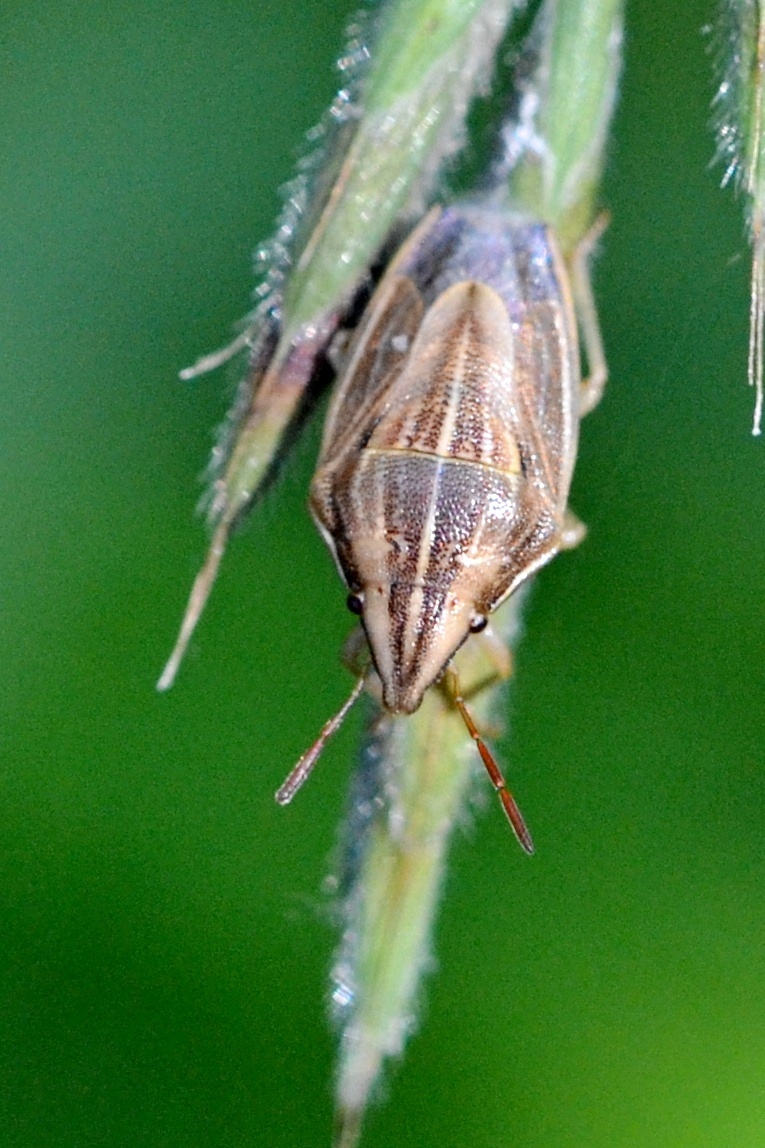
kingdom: Animalia
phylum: Arthropoda
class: Insecta
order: Hemiptera
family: Pentatomidae
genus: Aelia
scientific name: Aelia acuminata
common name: Bishop's mitre
